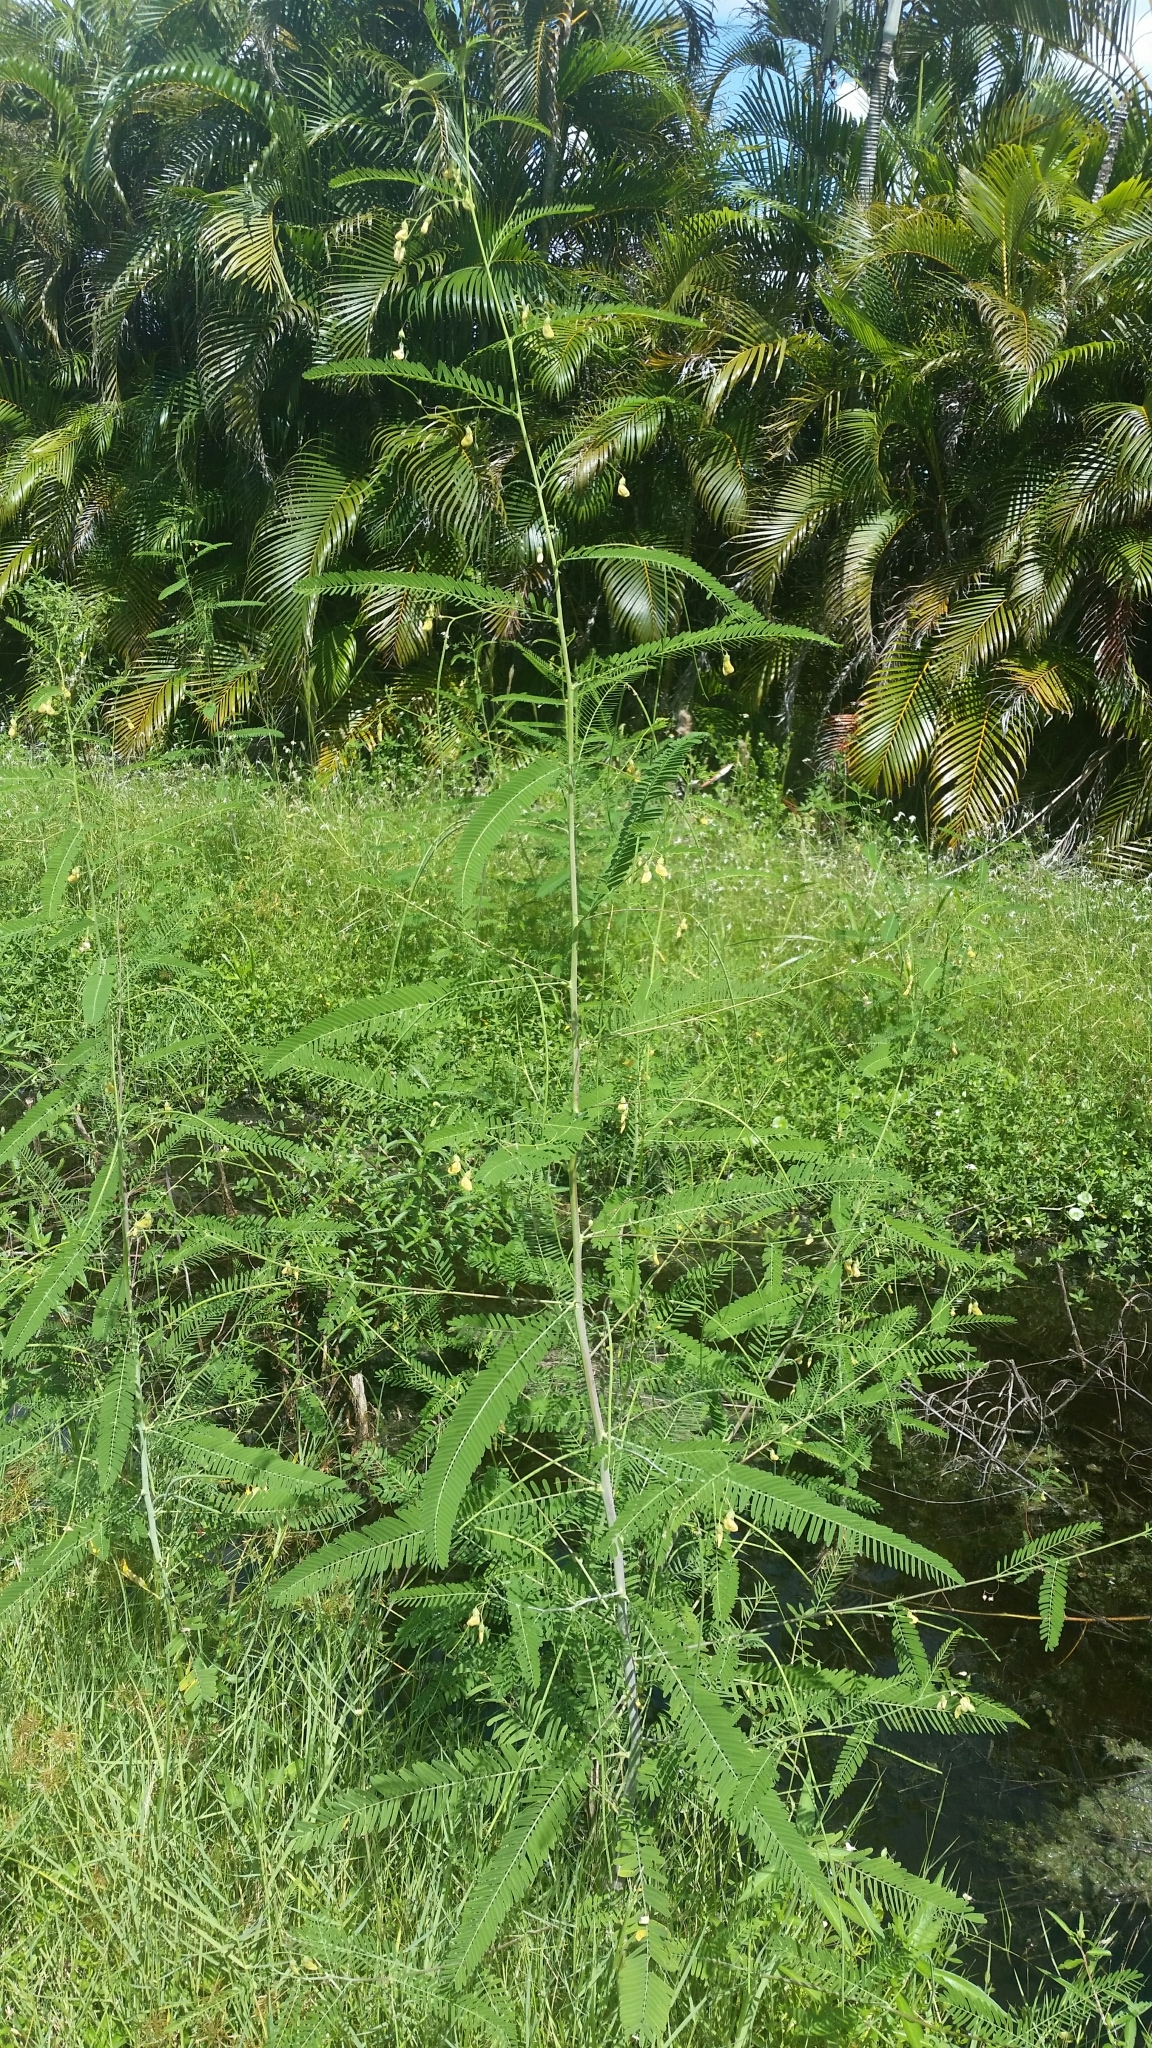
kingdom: Plantae
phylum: Tracheophyta
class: Magnoliopsida
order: Fabales
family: Fabaceae
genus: Sesbania
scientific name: Sesbania herbacea
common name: Bigpod sesbania
